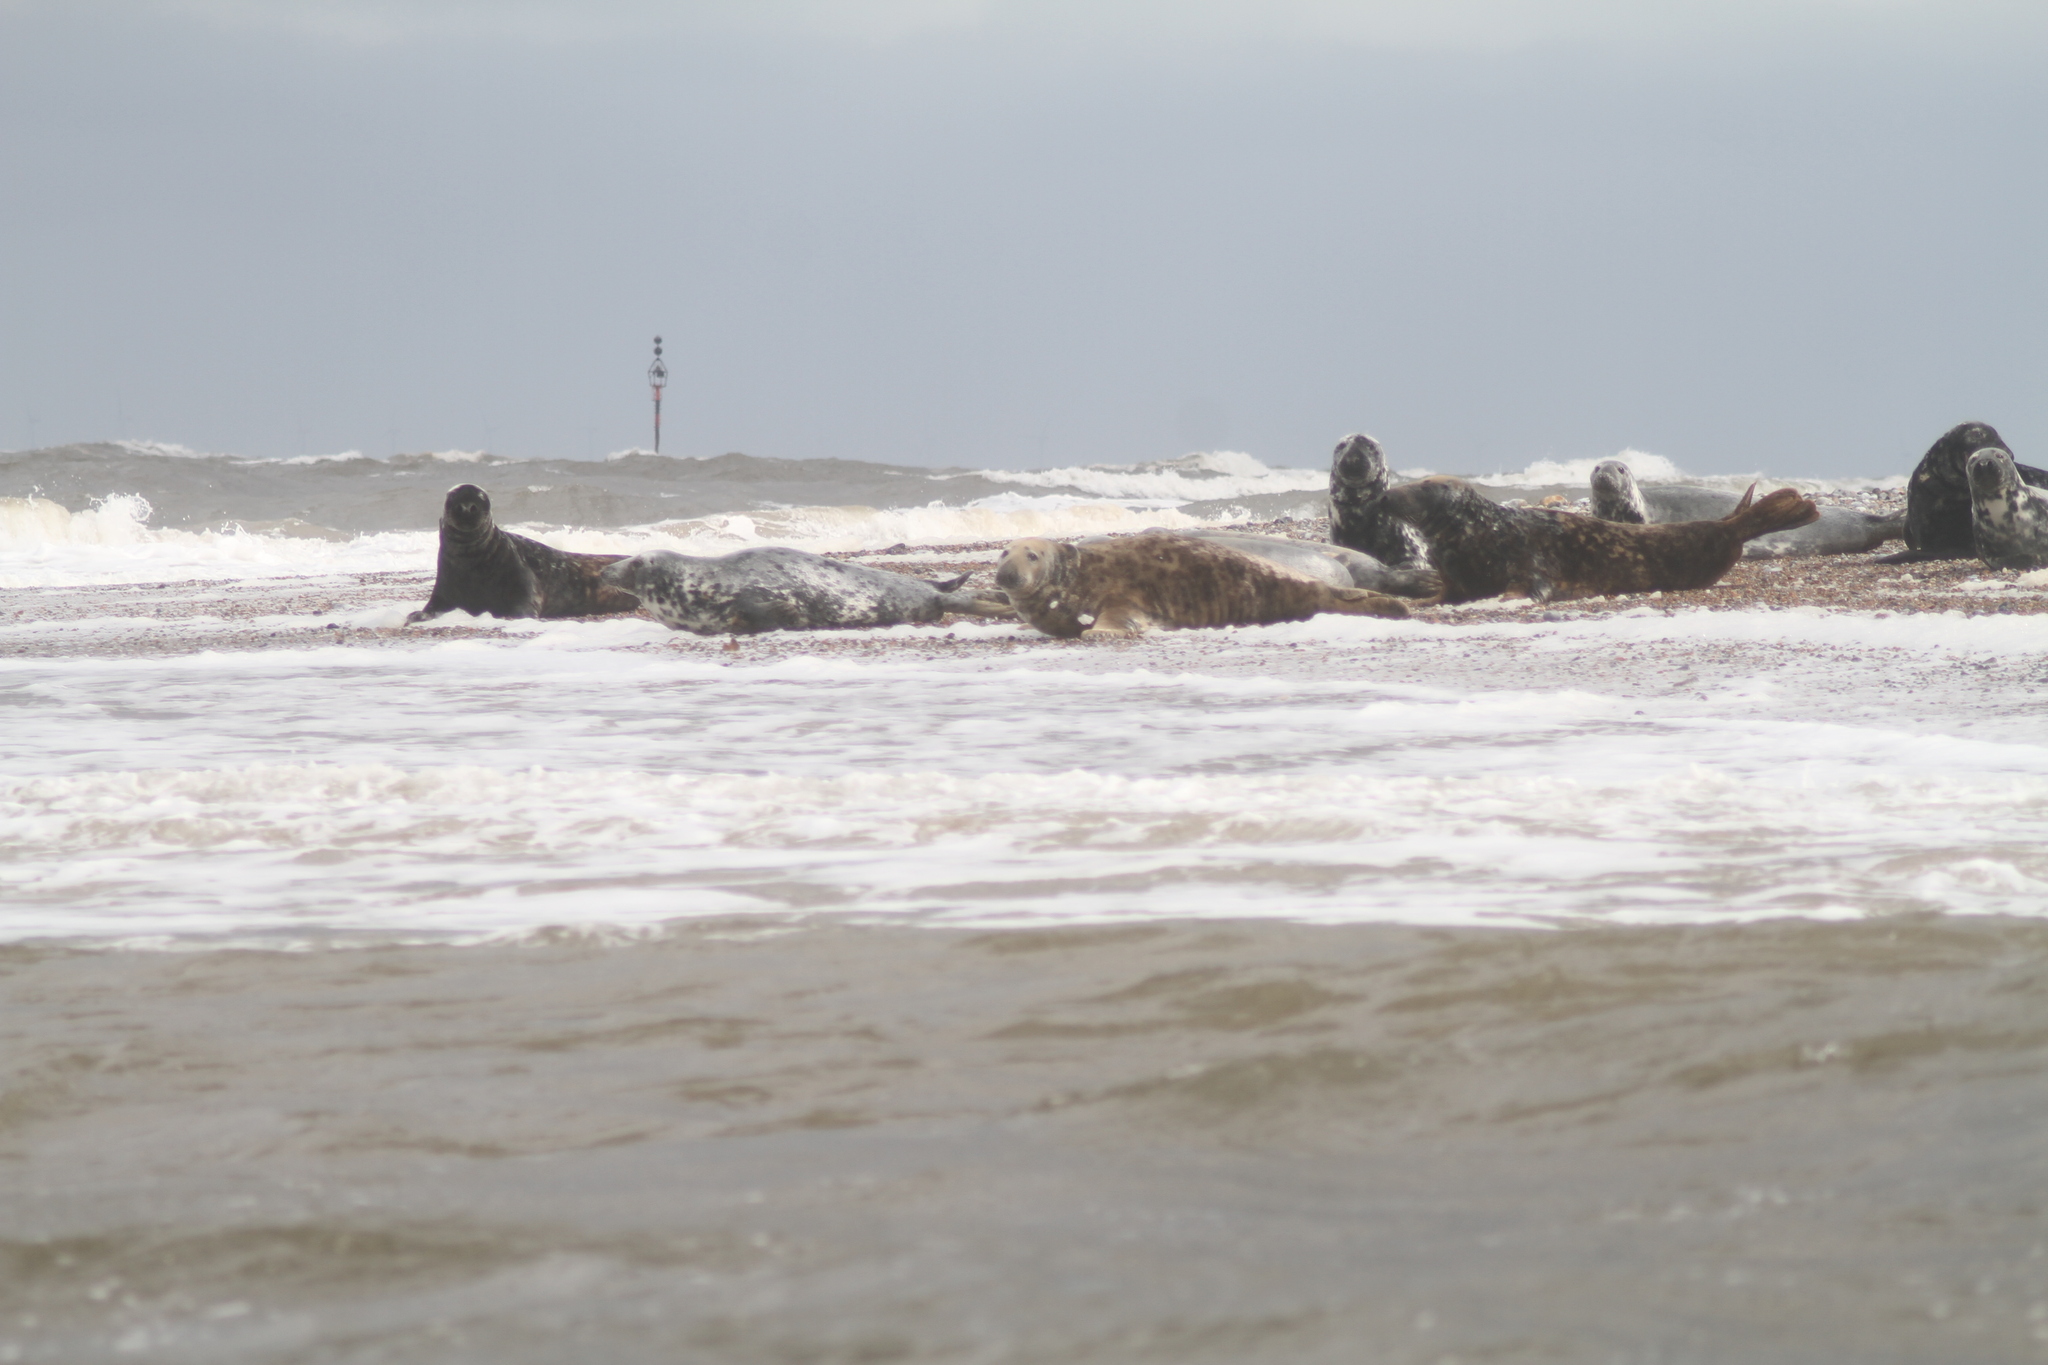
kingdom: Animalia
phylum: Chordata
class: Mammalia
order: Carnivora
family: Phocidae
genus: Halichoerus
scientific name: Halichoerus grypus
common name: Grey seal
